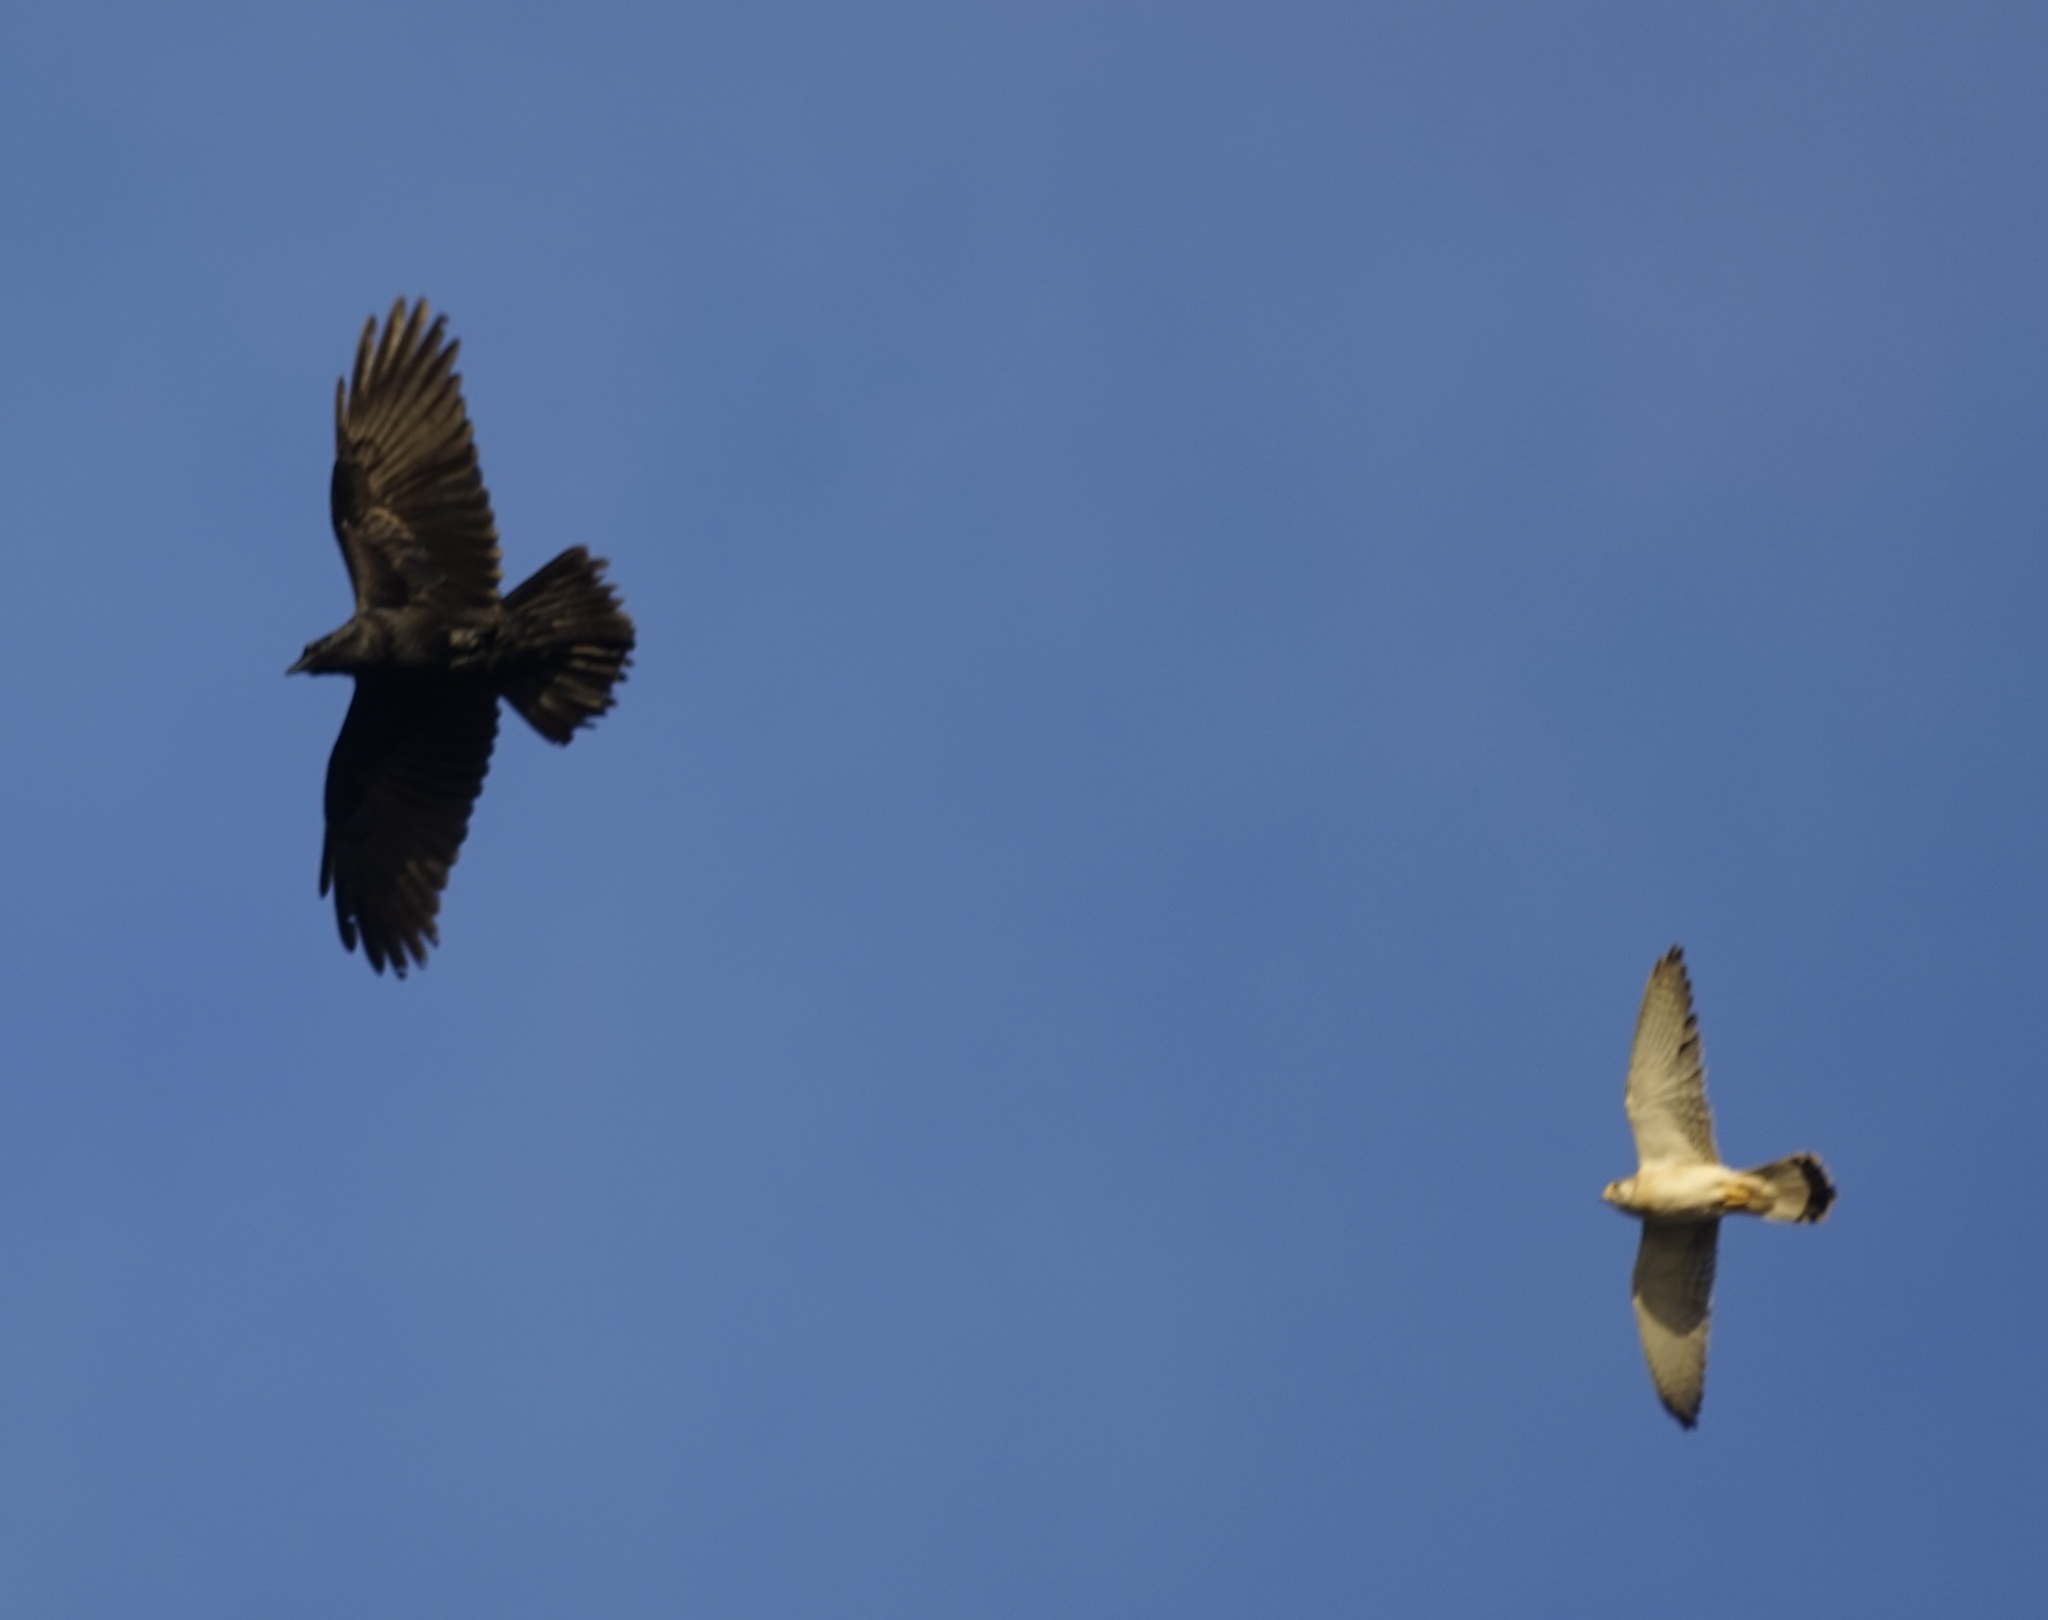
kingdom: Animalia
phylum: Chordata
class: Aves
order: Falconiformes
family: Falconidae
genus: Falco
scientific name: Falco cenchroides
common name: Nankeen kestrel
